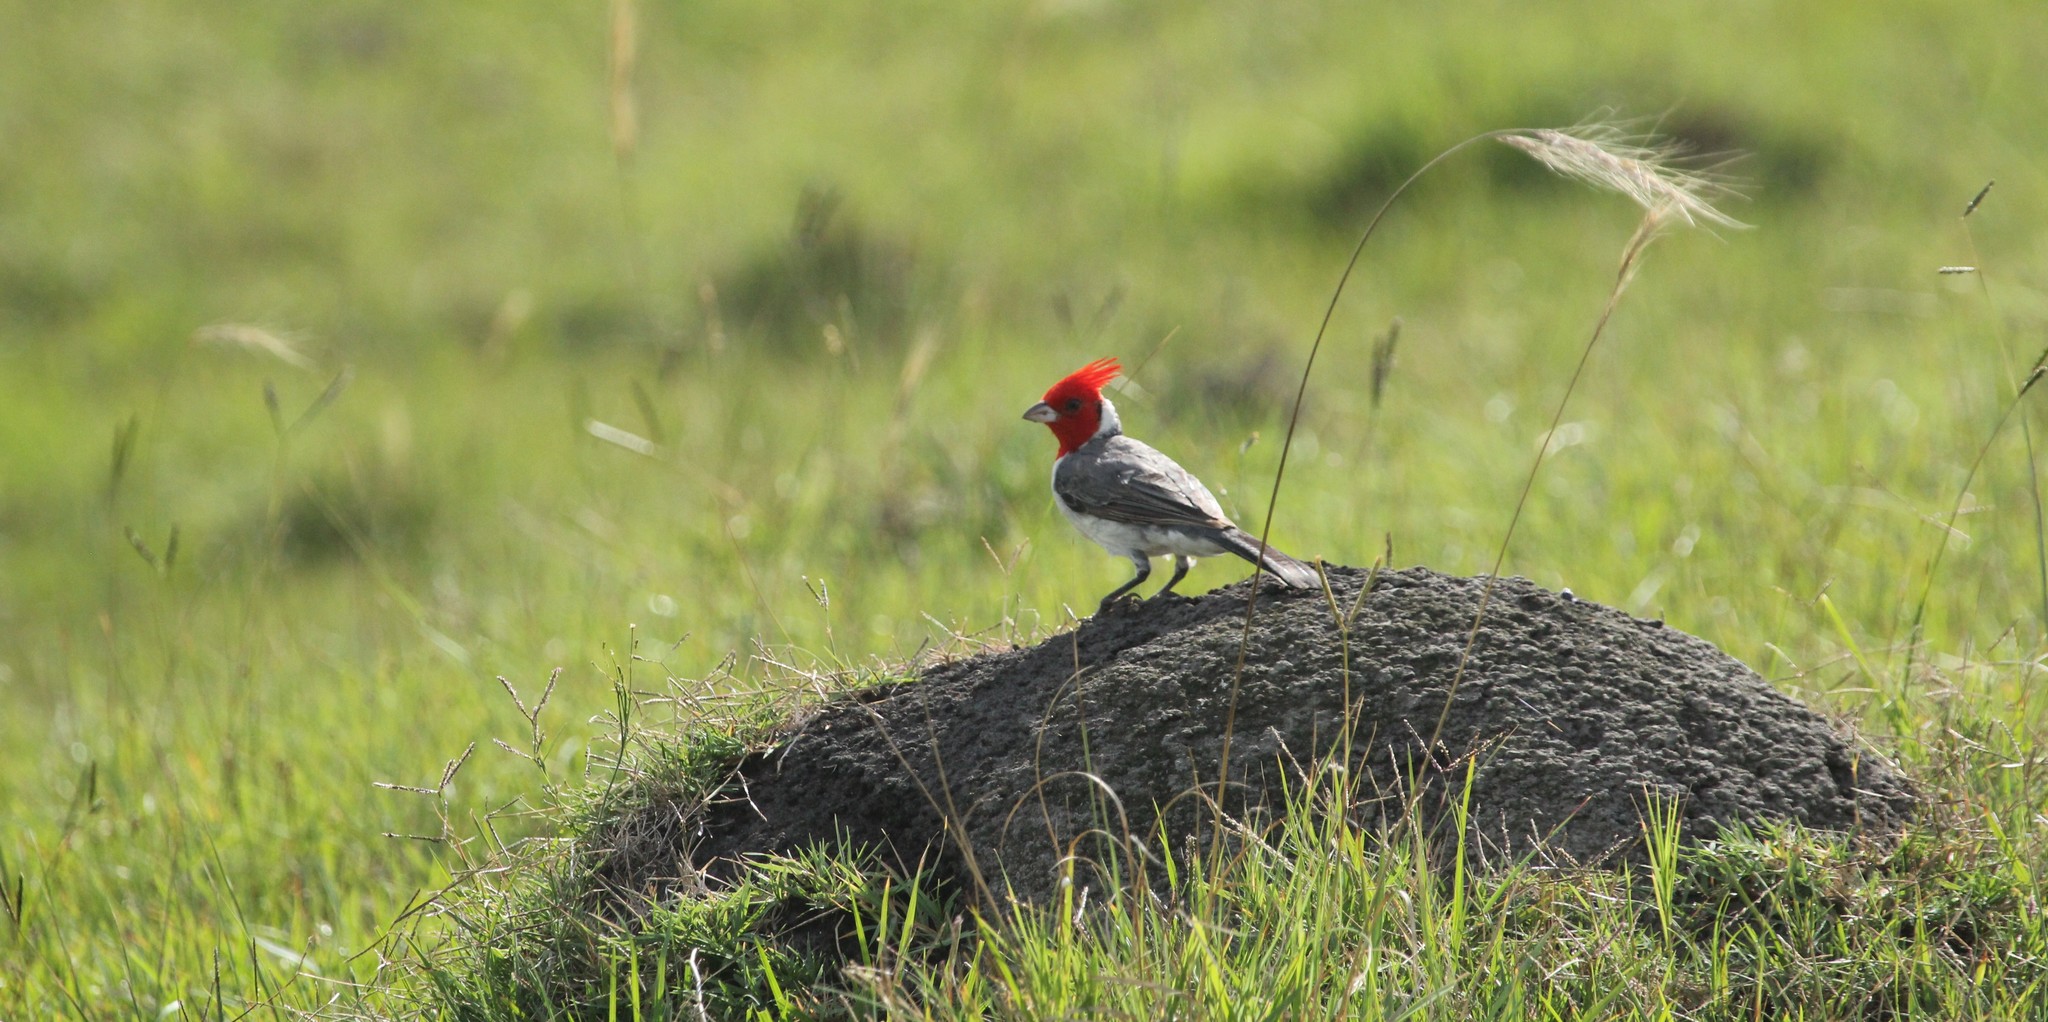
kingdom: Animalia
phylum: Chordata
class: Aves
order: Passeriformes
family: Thraupidae
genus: Paroaria
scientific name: Paroaria coronata
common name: Red-crested cardinal
